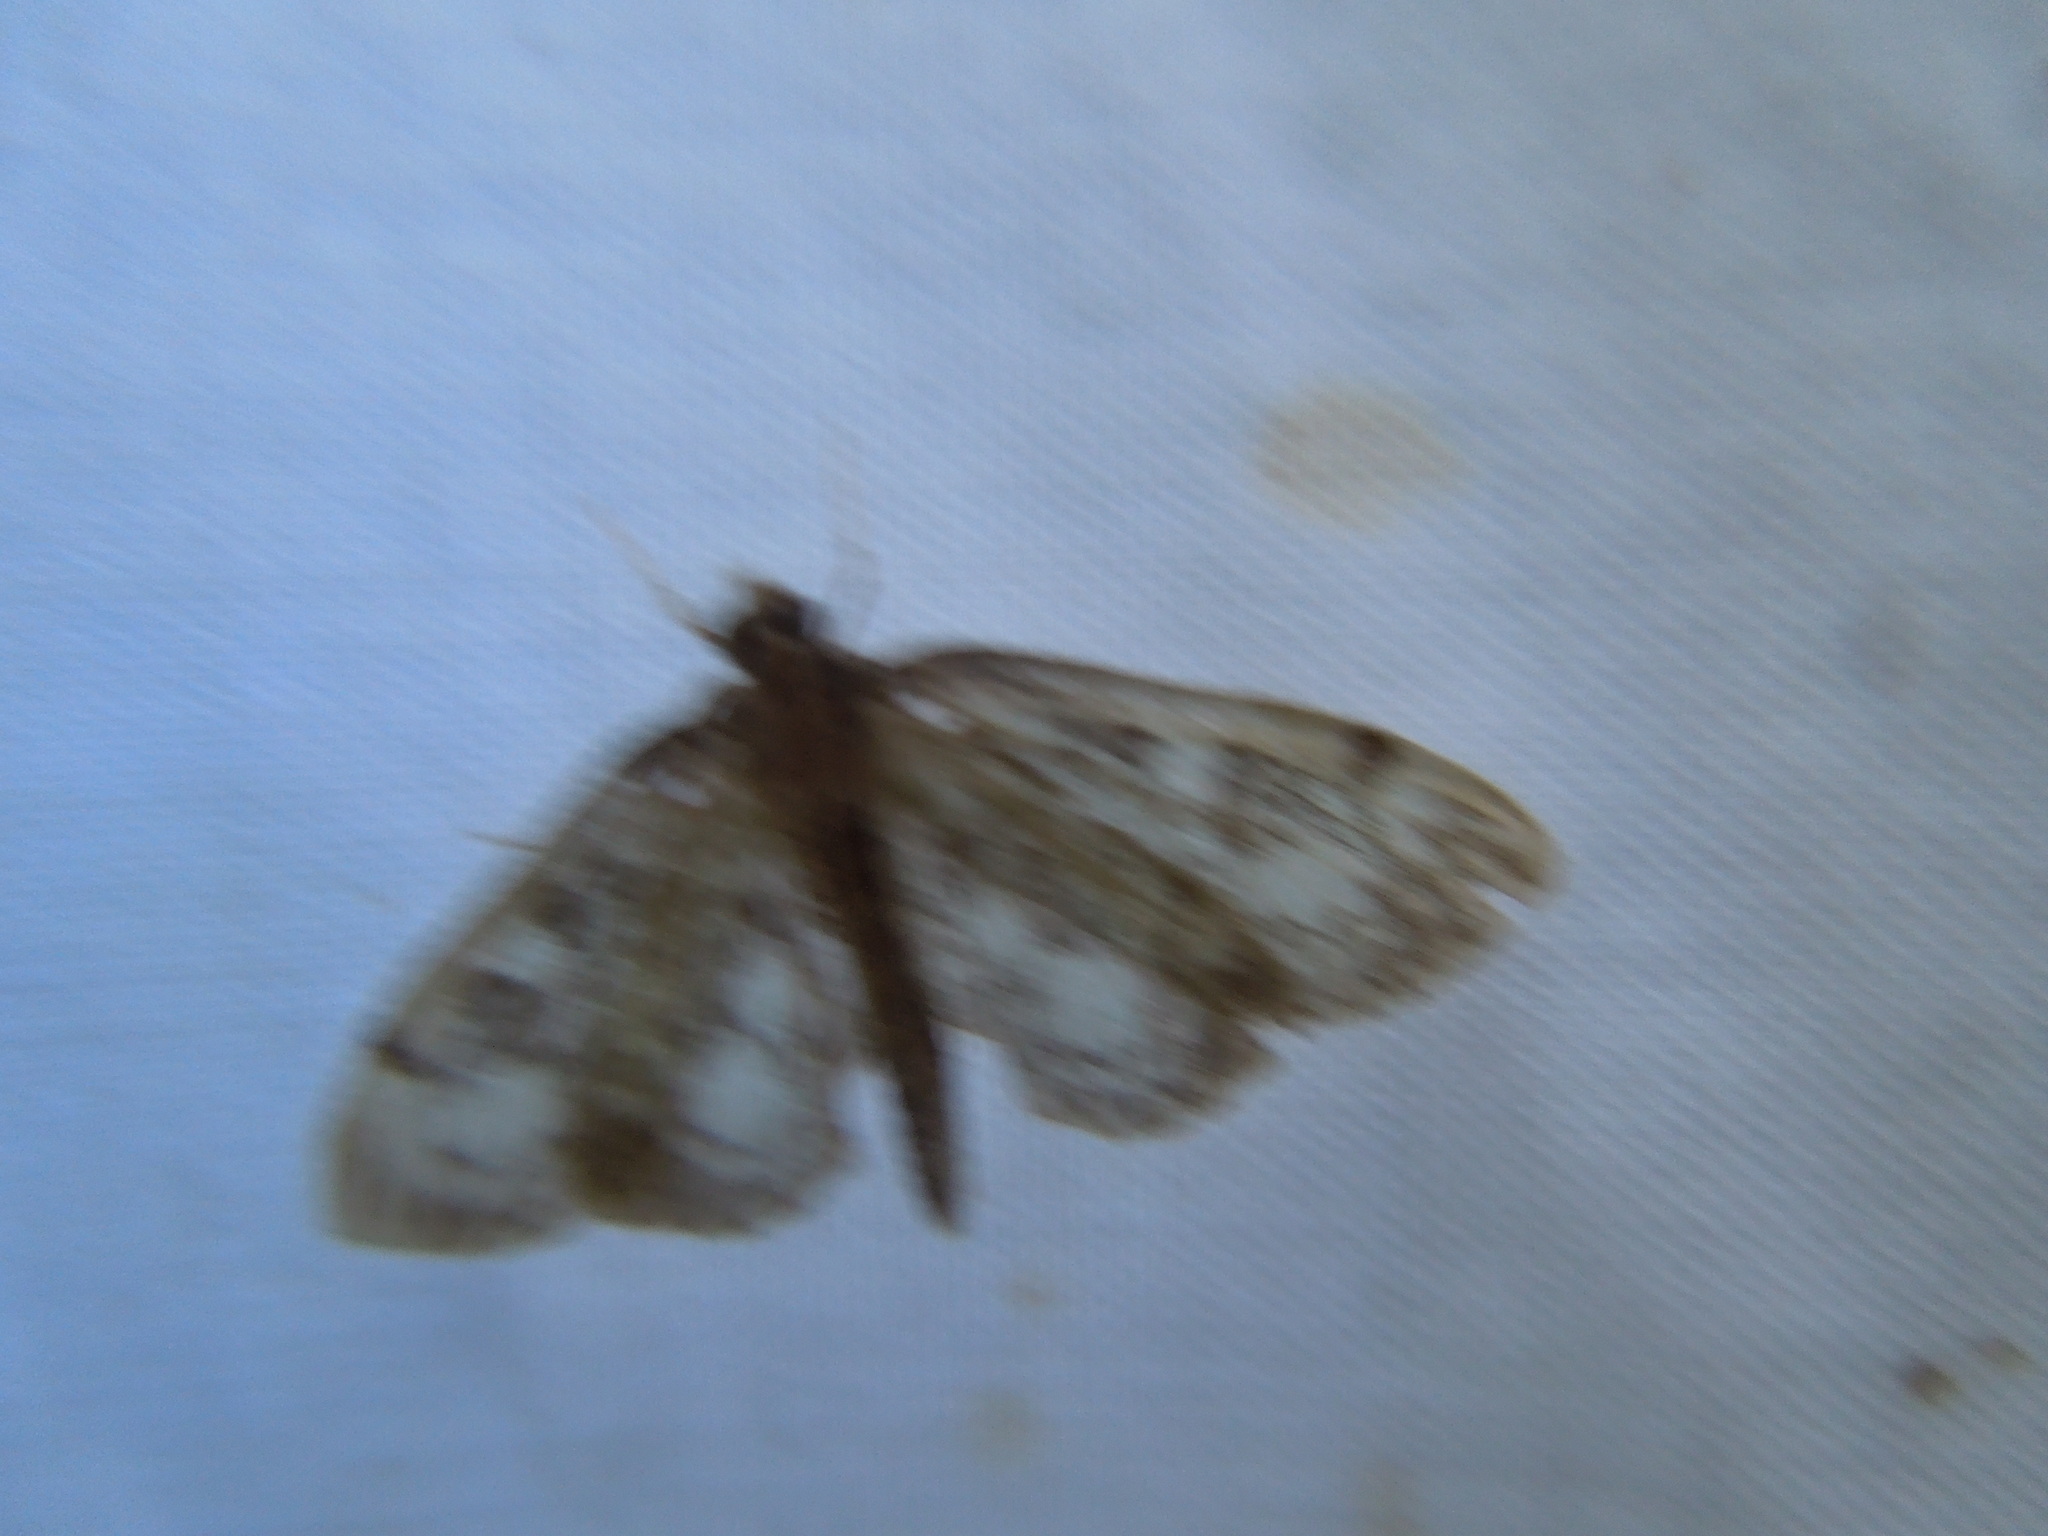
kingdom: Animalia
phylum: Arthropoda
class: Insecta
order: Lepidoptera
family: Crambidae
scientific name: Crambidae
